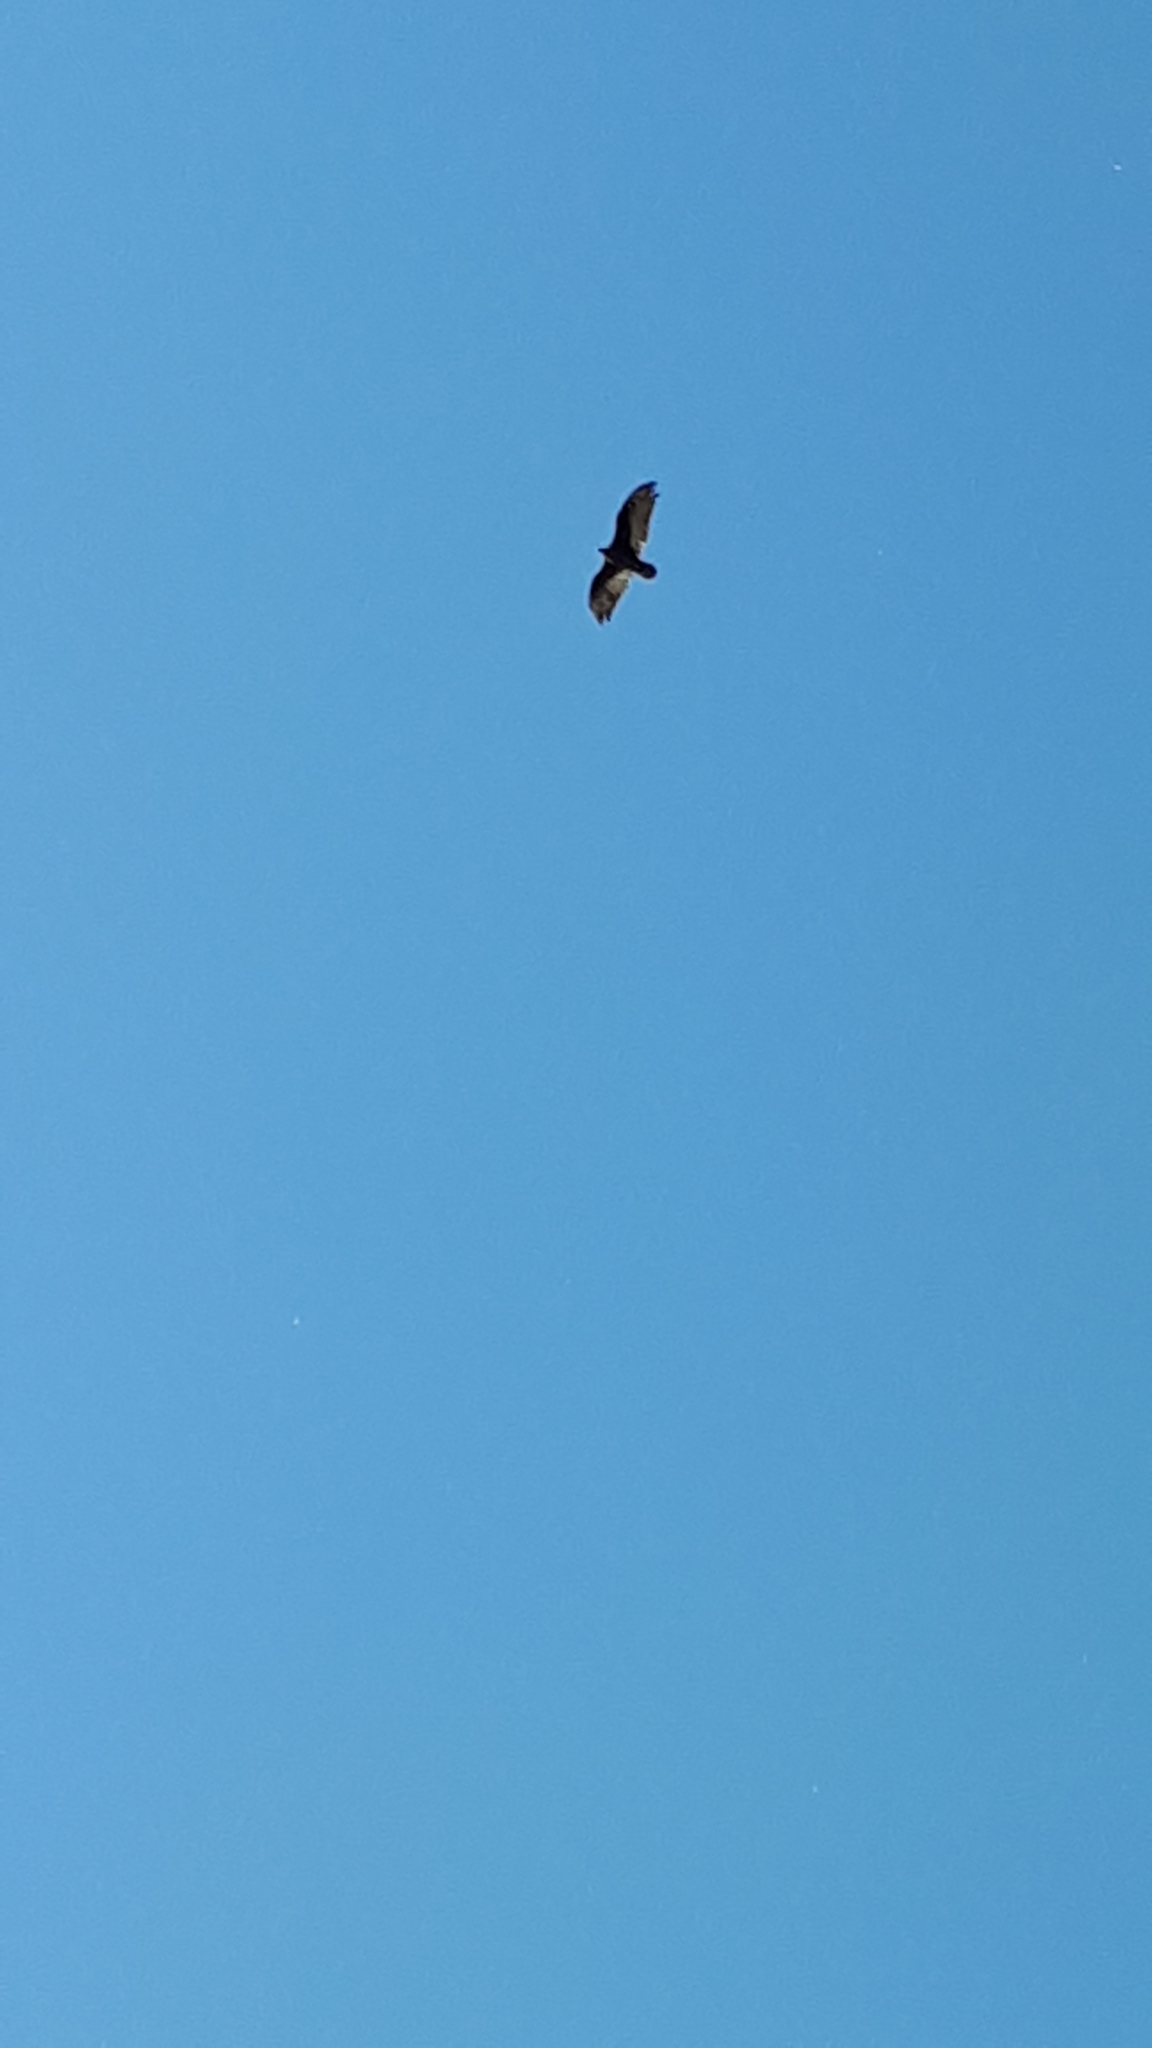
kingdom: Animalia
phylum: Chordata
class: Aves
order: Accipitriformes
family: Cathartidae
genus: Cathartes
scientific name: Cathartes aura
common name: Turkey vulture
